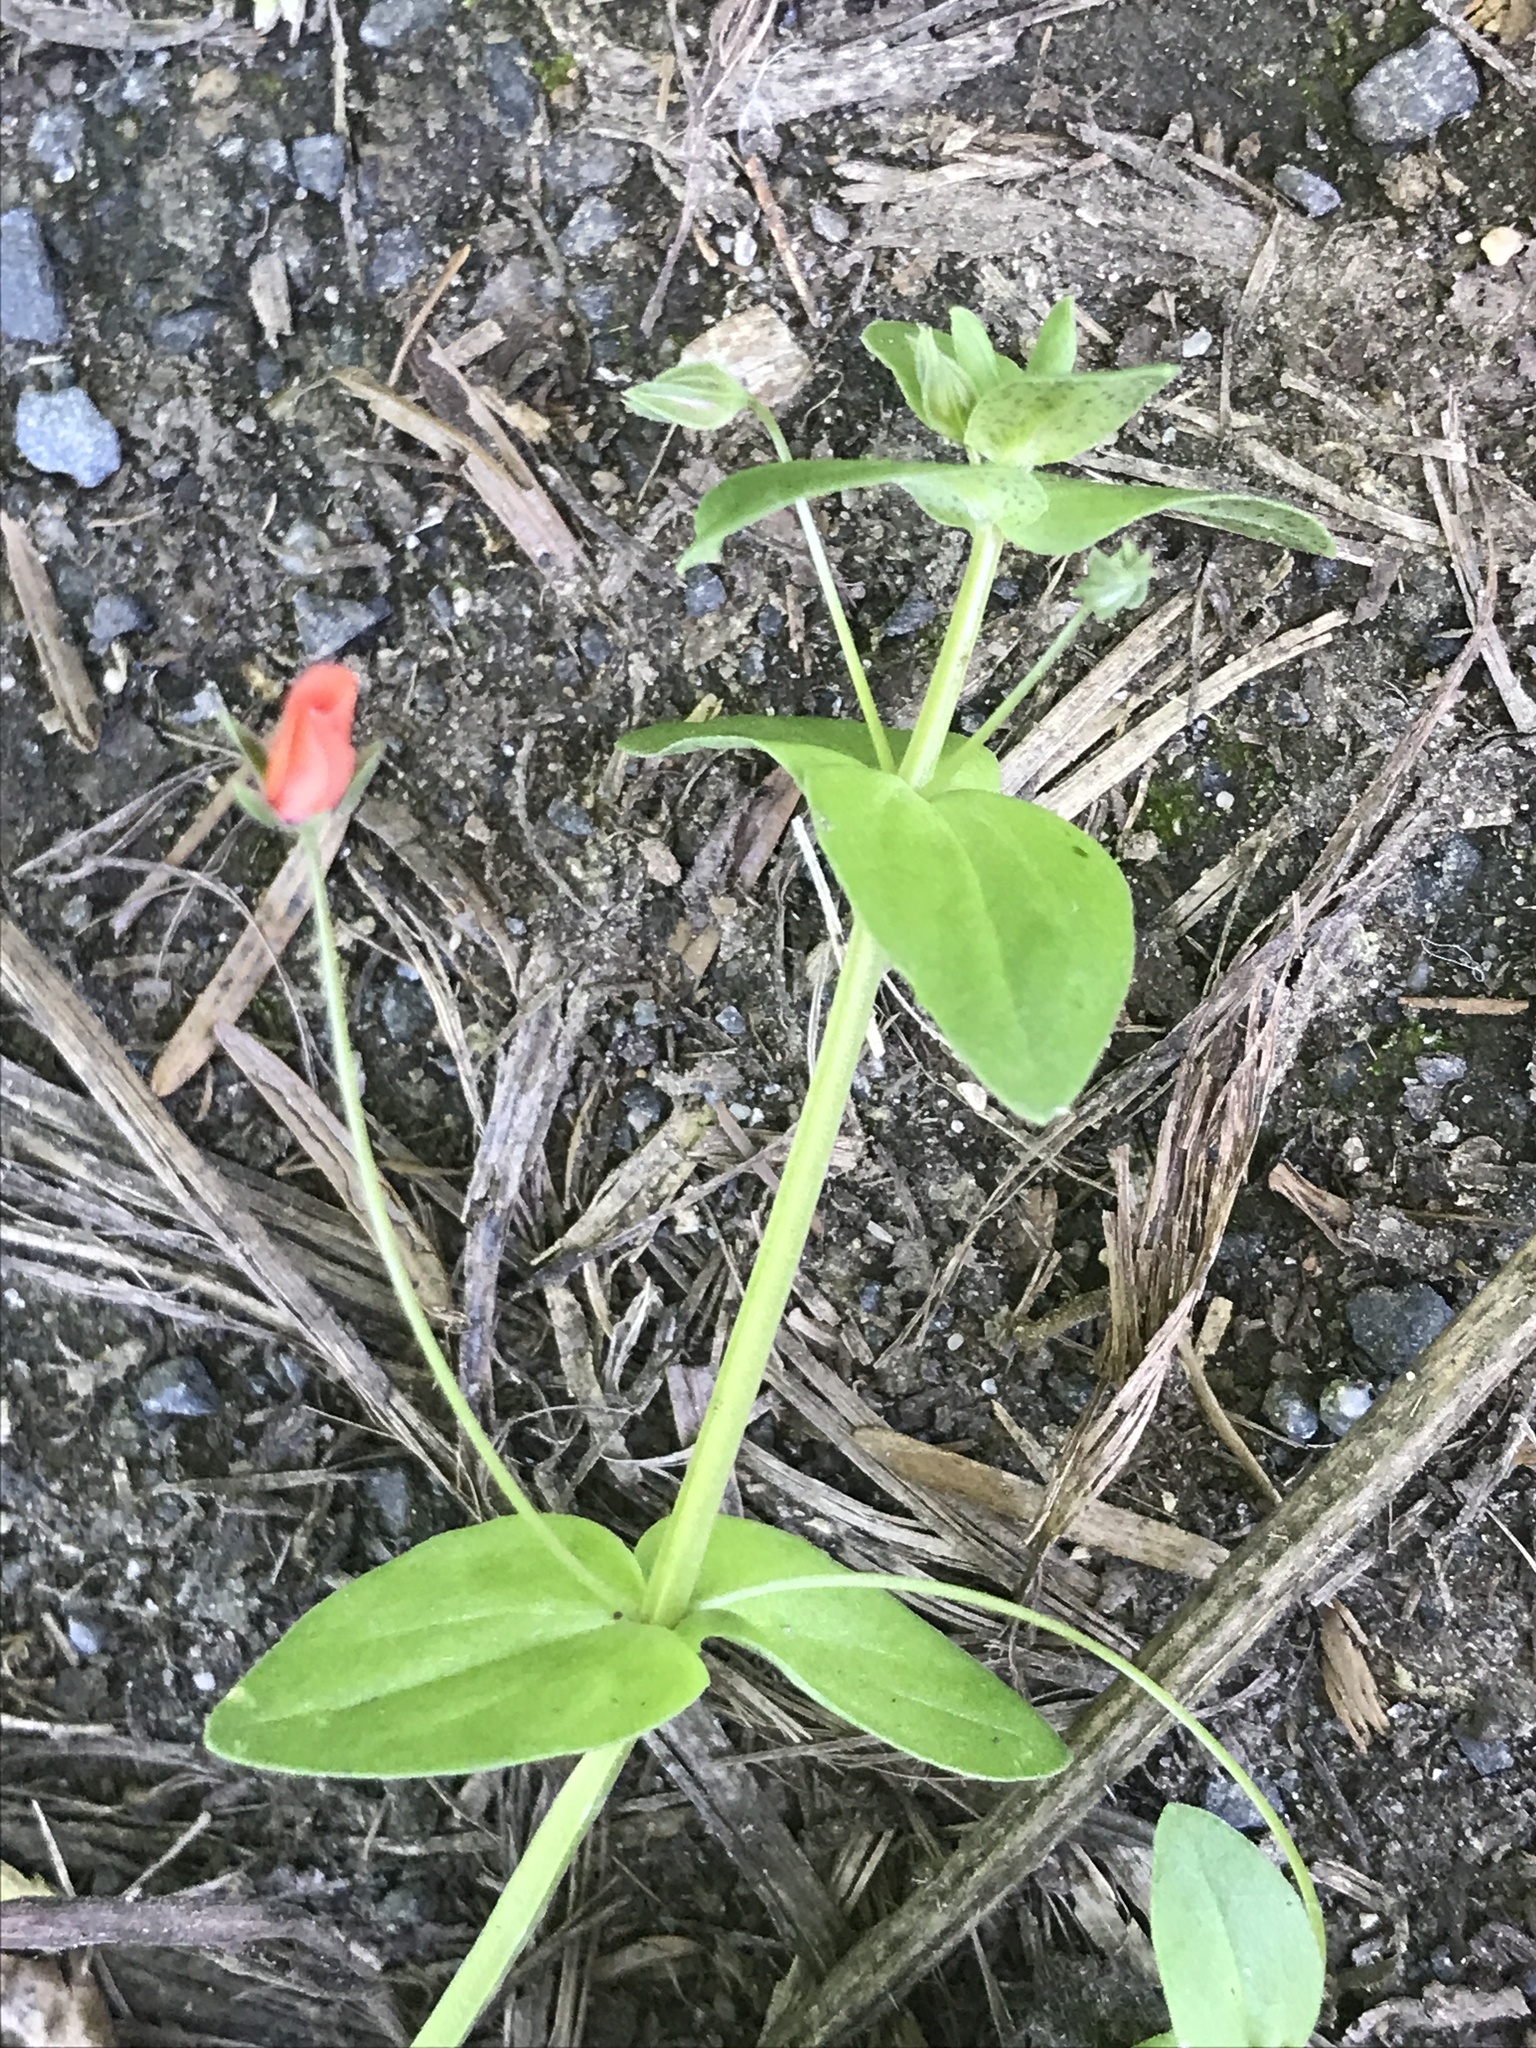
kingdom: Plantae
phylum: Tracheophyta
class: Magnoliopsida
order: Ericales
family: Primulaceae
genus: Lysimachia
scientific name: Lysimachia arvensis
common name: Scarlet pimpernel
